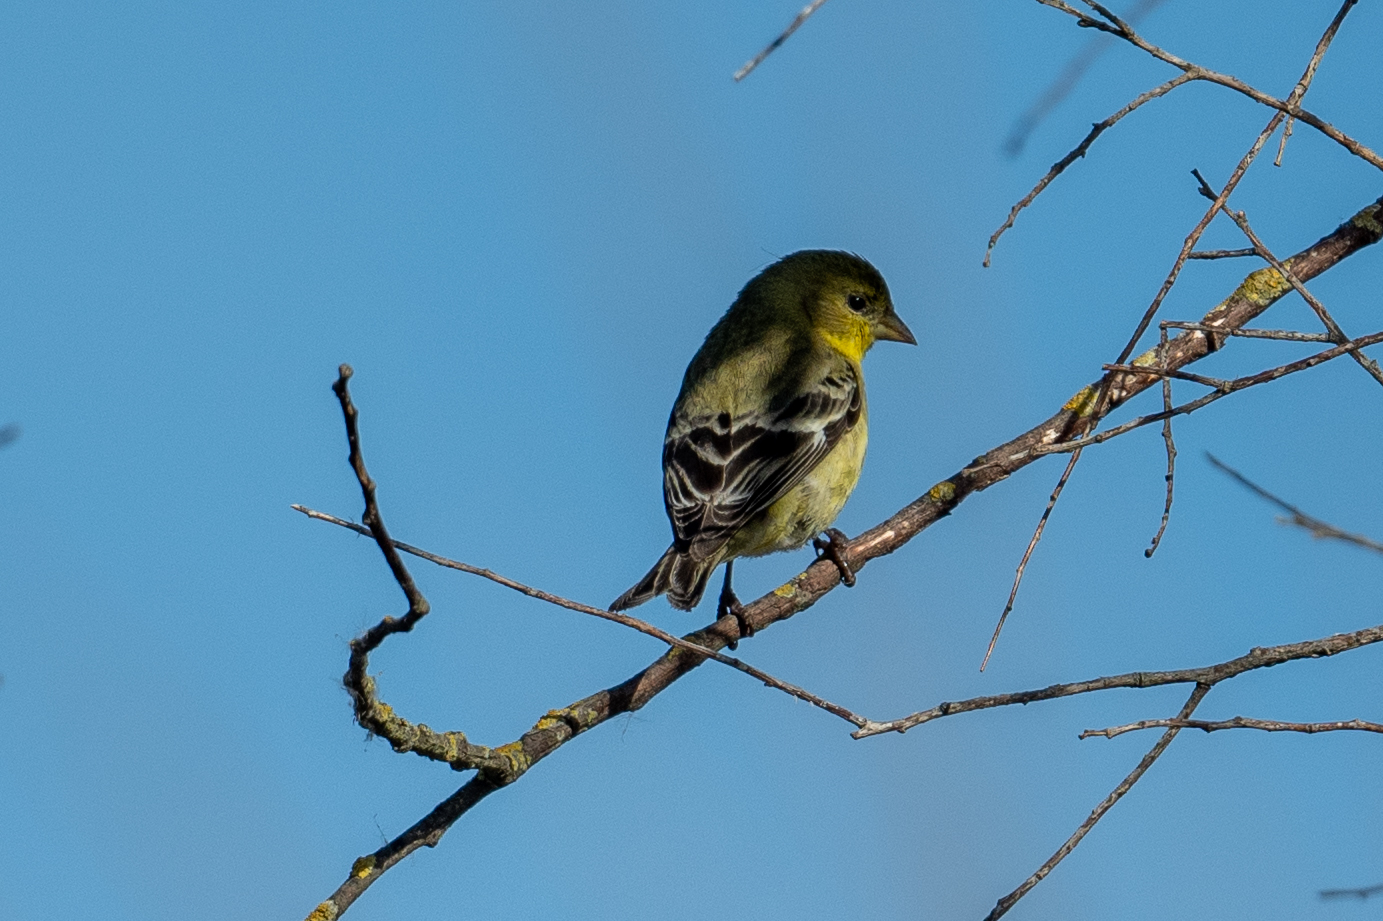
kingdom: Animalia
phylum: Chordata
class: Aves
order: Passeriformes
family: Fringillidae
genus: Spinus
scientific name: Spinus psaltria
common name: Lesser goldfinch
